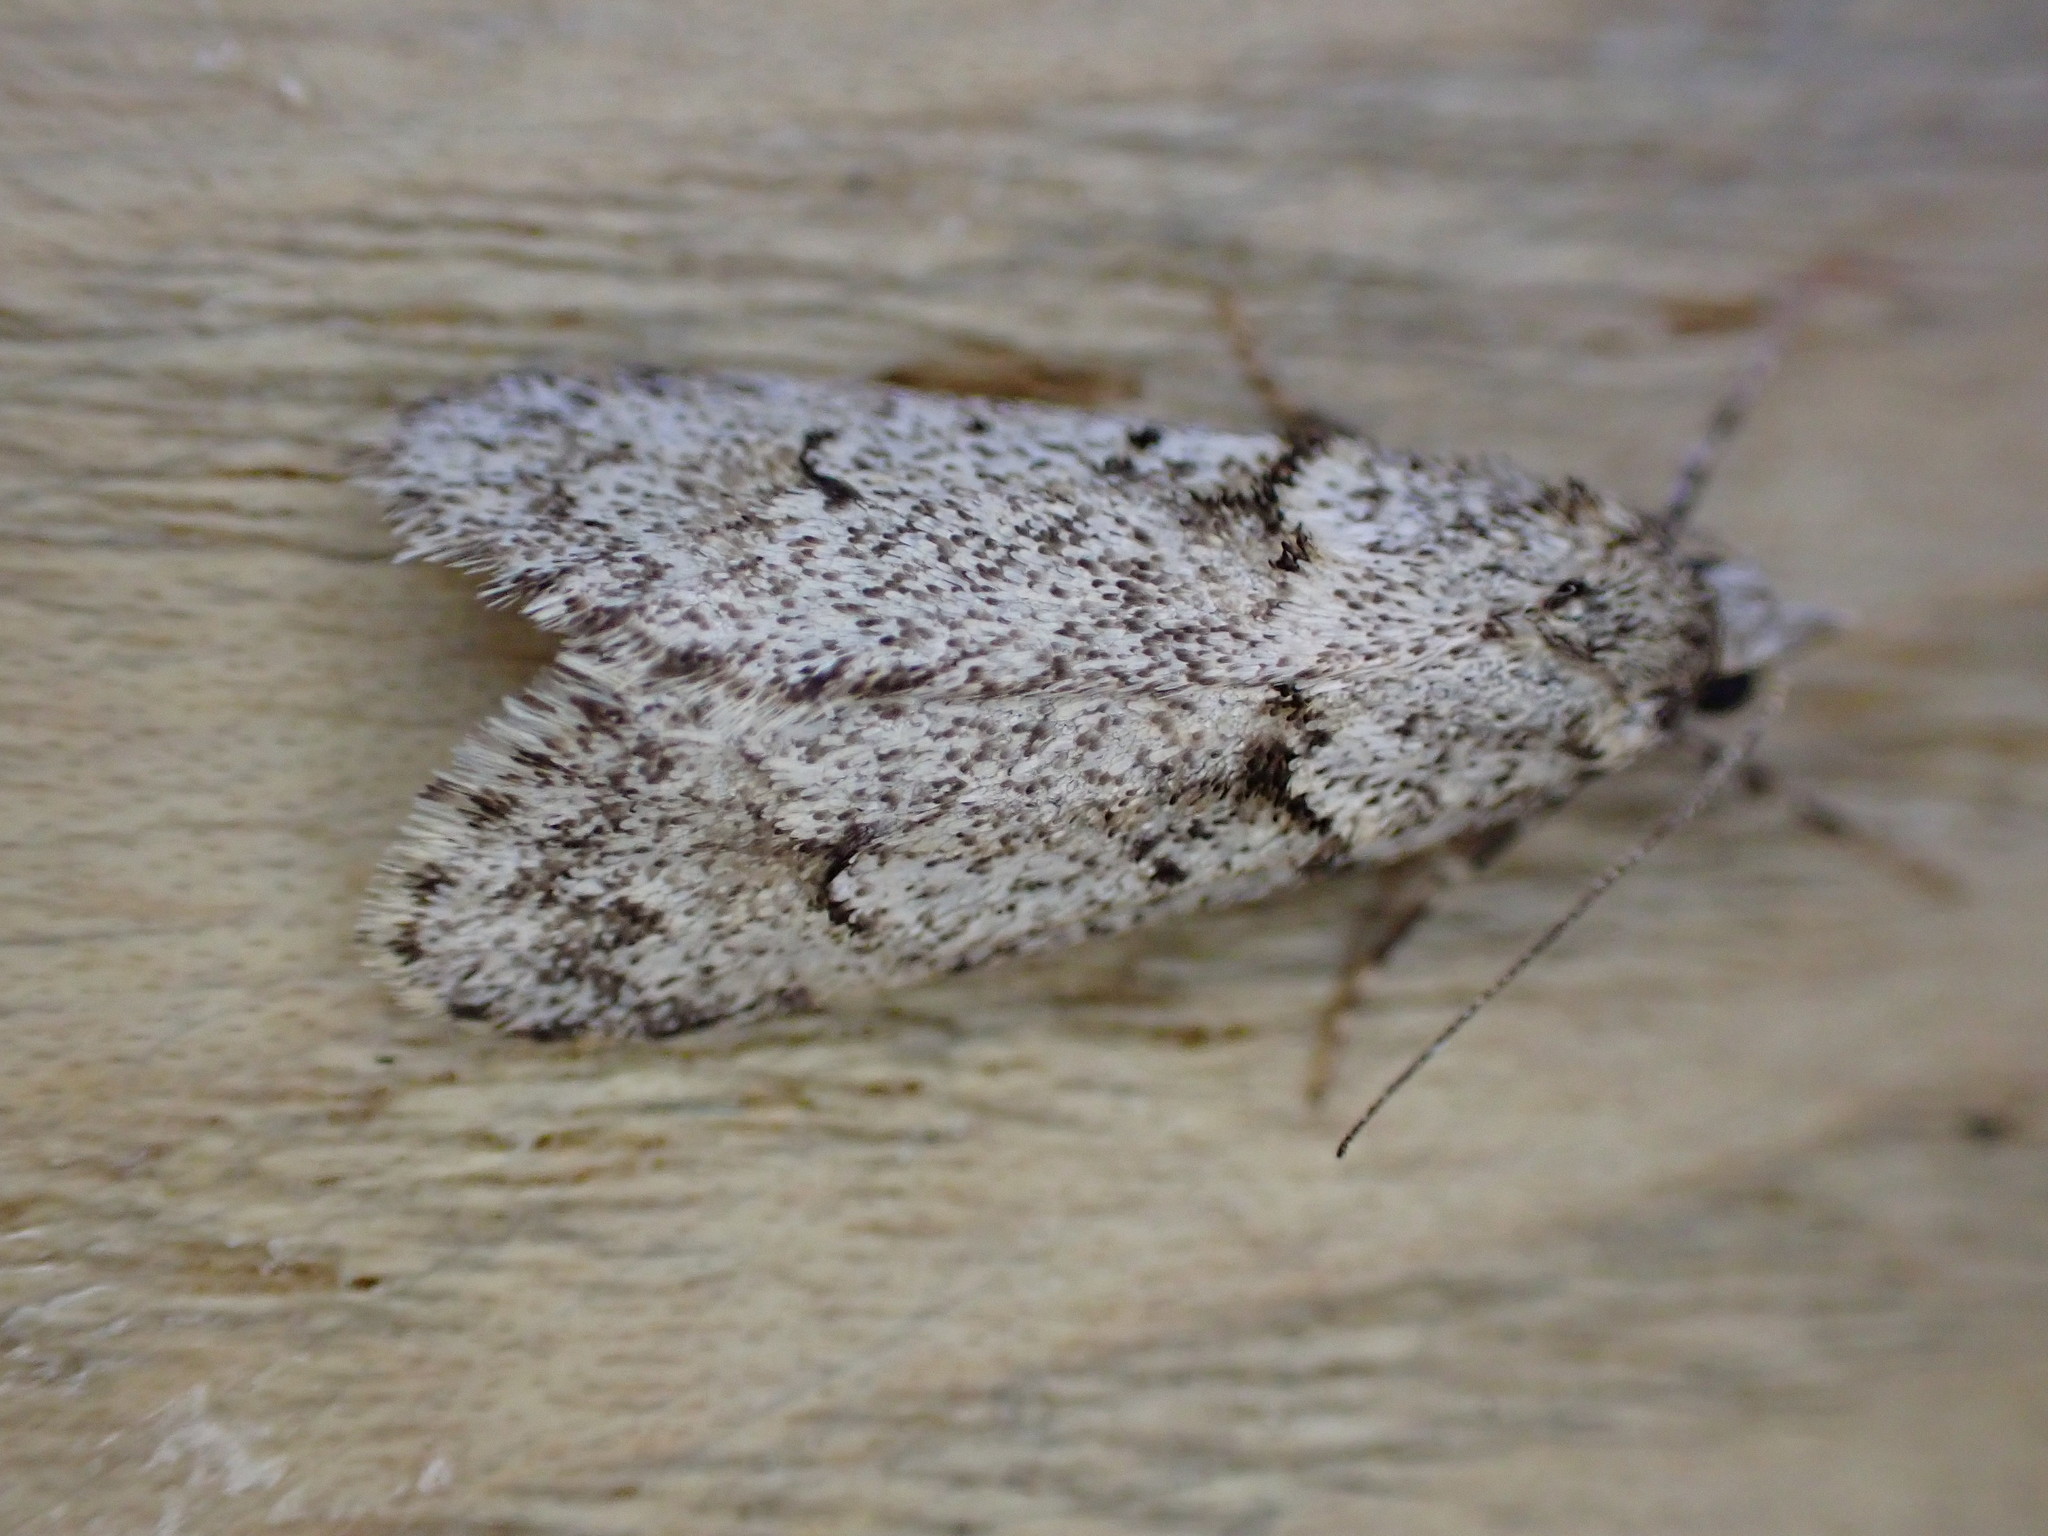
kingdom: Animalia
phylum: Arthropoda
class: Insecta
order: Lepidoptera
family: Lypusidae
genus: Diurnea
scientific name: Diurnea fagella
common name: March tubic
